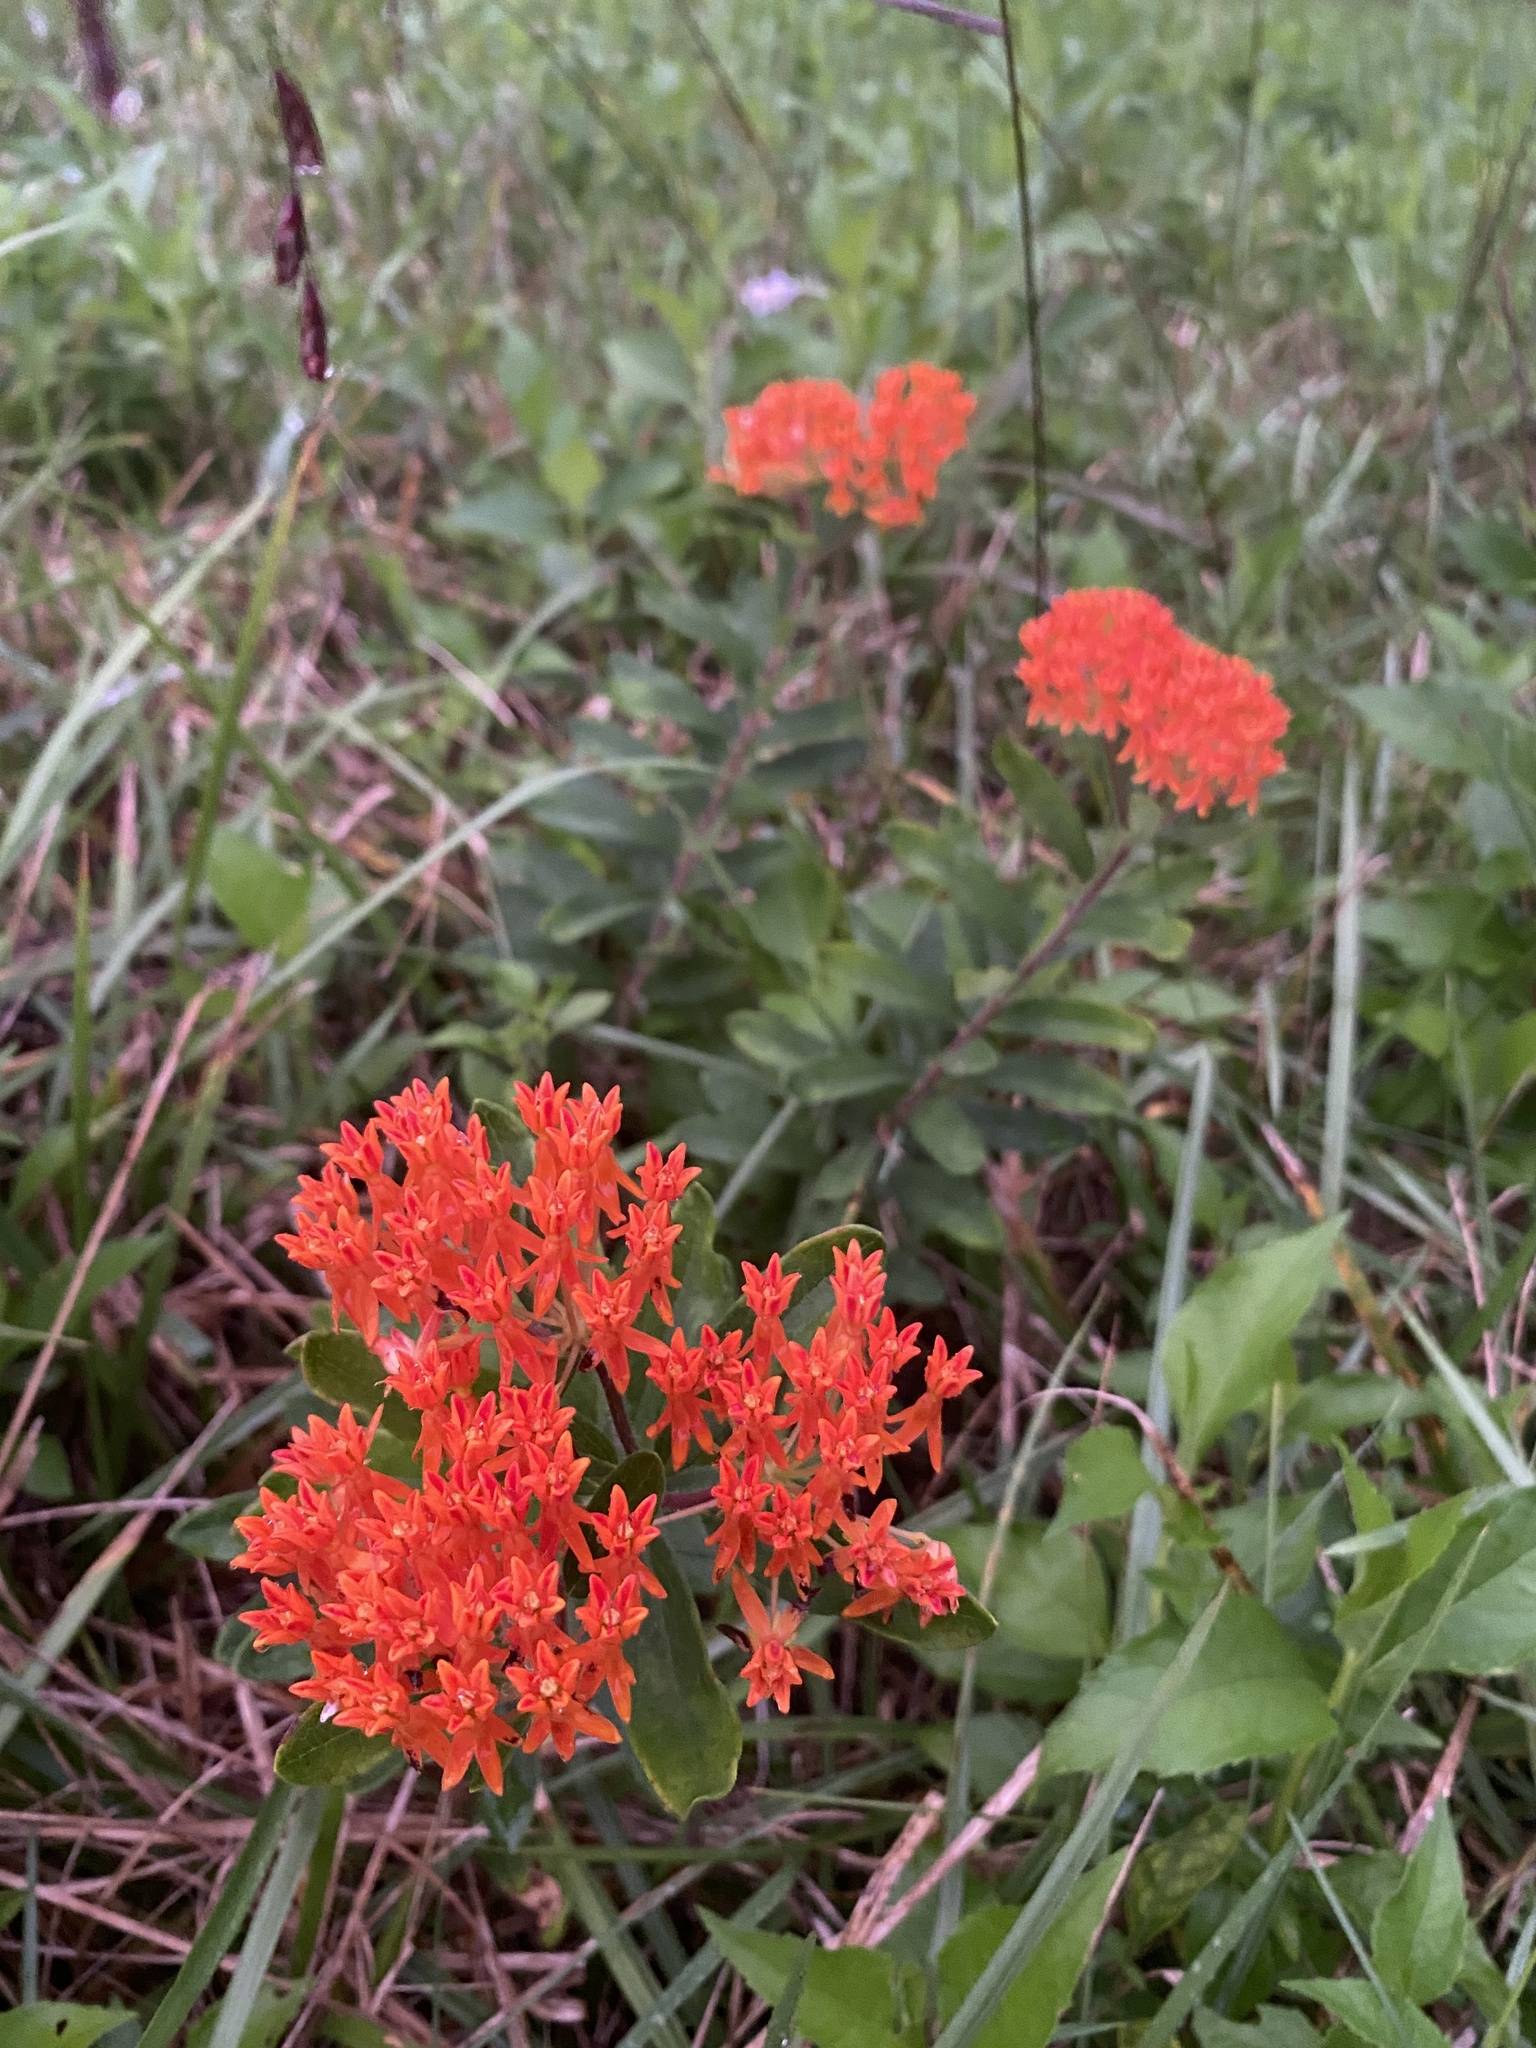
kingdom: Plantae
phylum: Tracheophyta
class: Magnoliopsida
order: Gentianales
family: Apocynaceae
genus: Asclepias
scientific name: Asclepias tuberosa
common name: Butterfly milkweed
